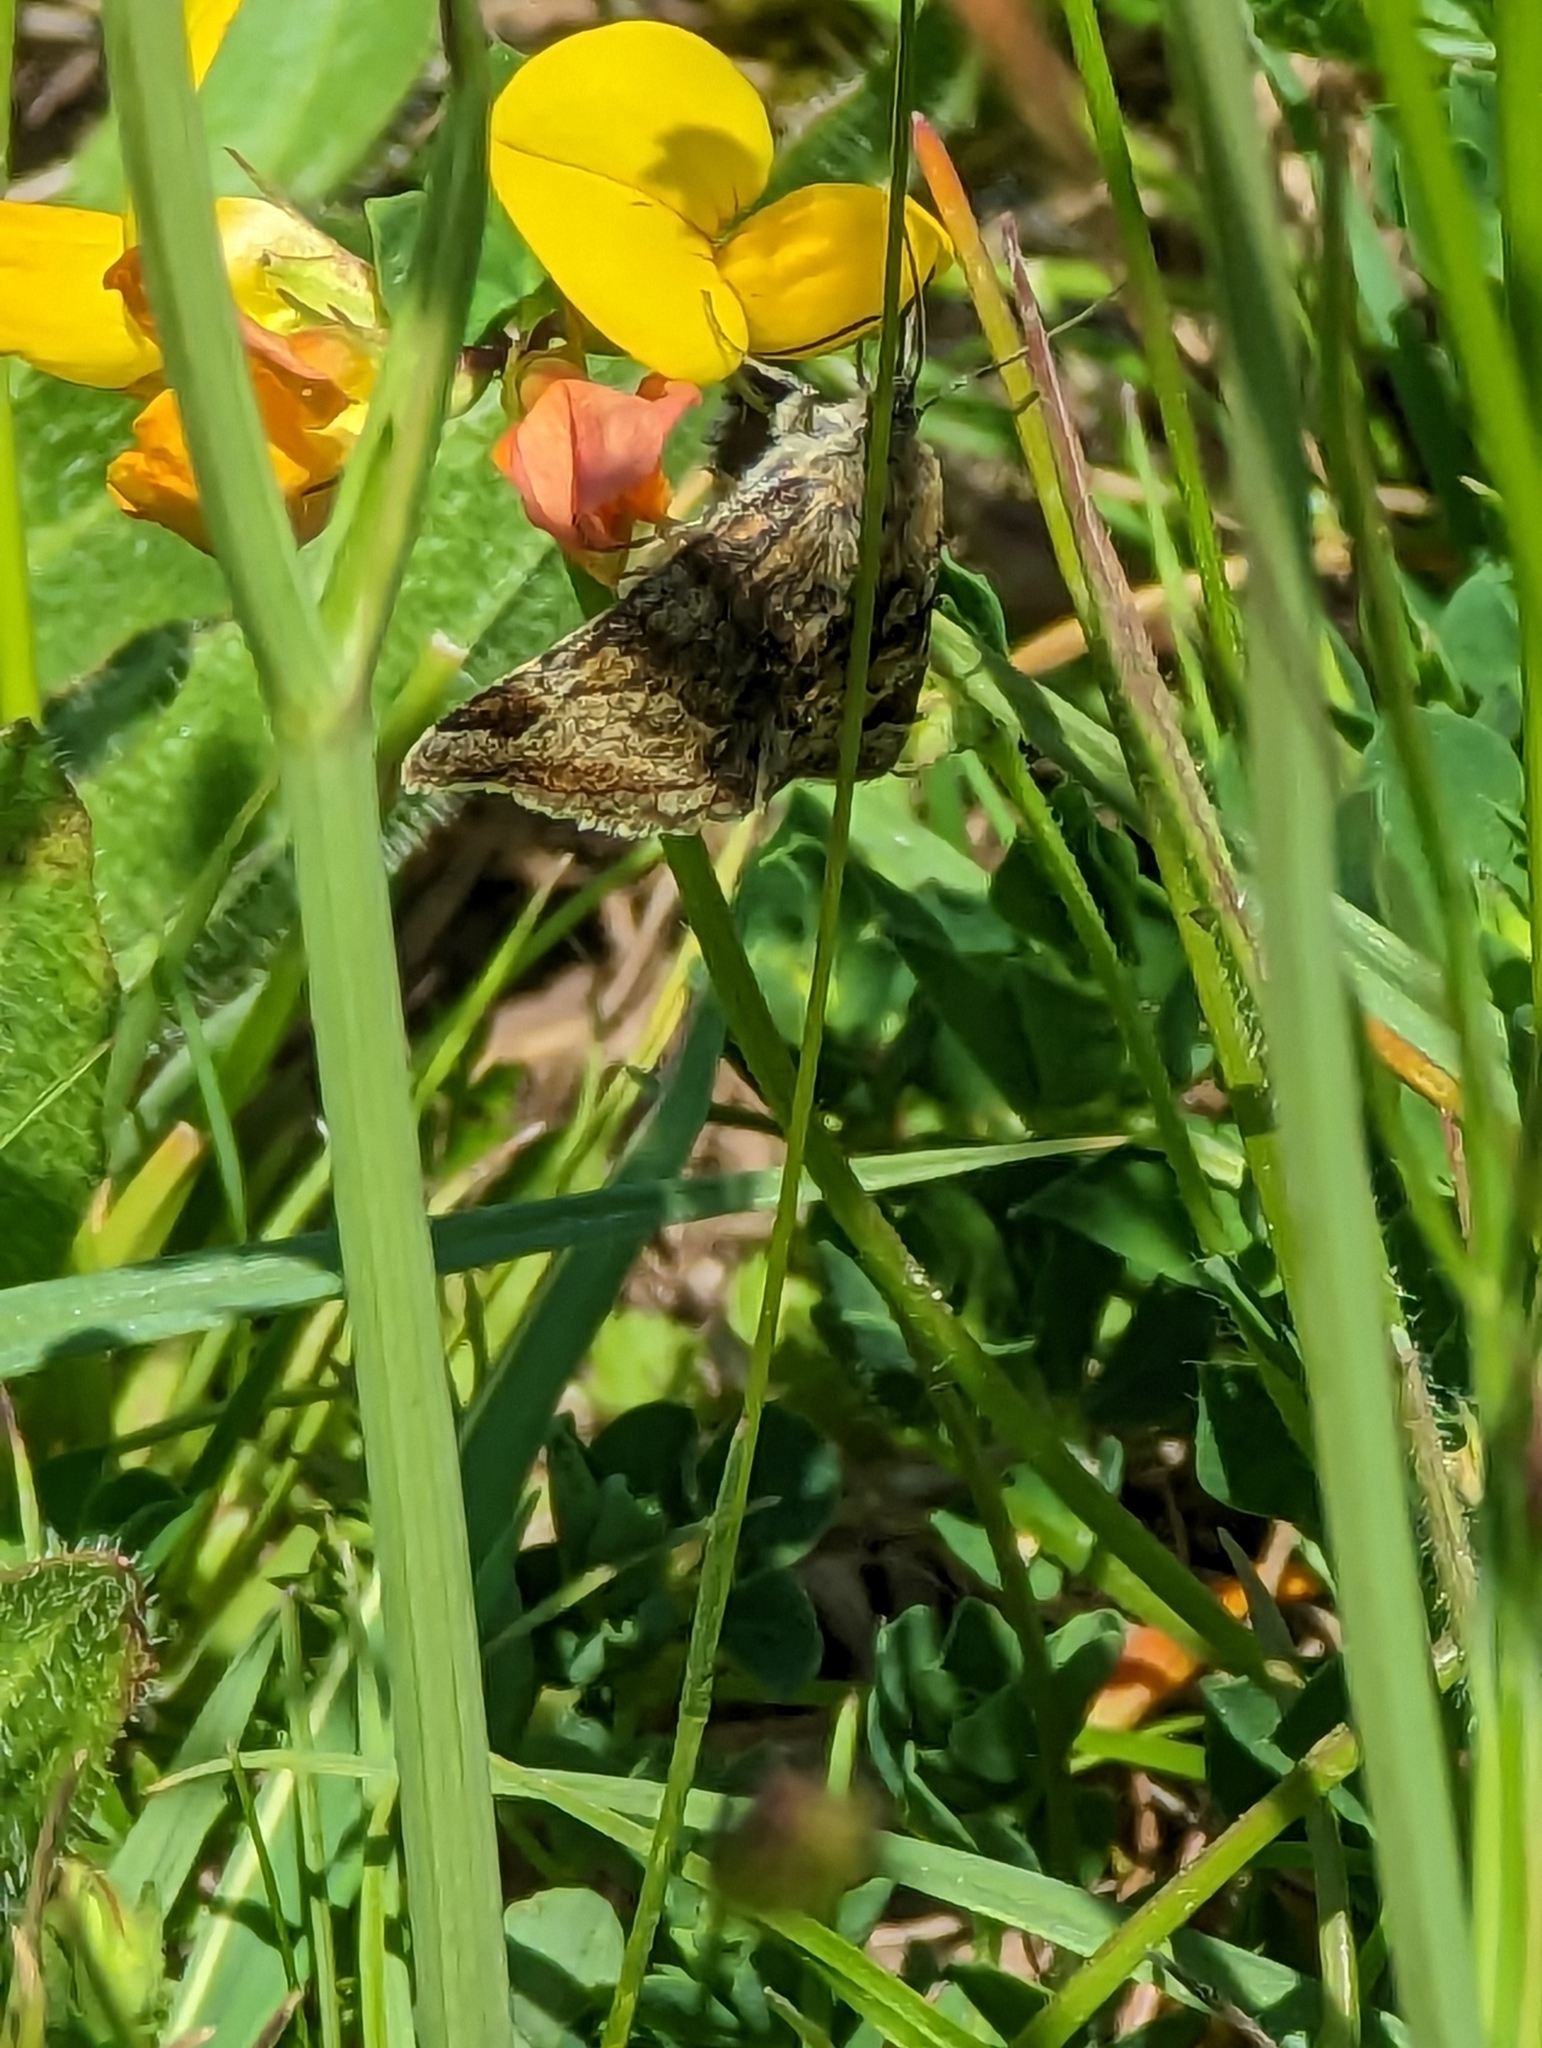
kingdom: Animalia
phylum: Arthropoda
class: Insecta
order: Lepidoptera
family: Erebidae
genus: Euclidia
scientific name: Euclidia glyphica
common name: Burnet companion
